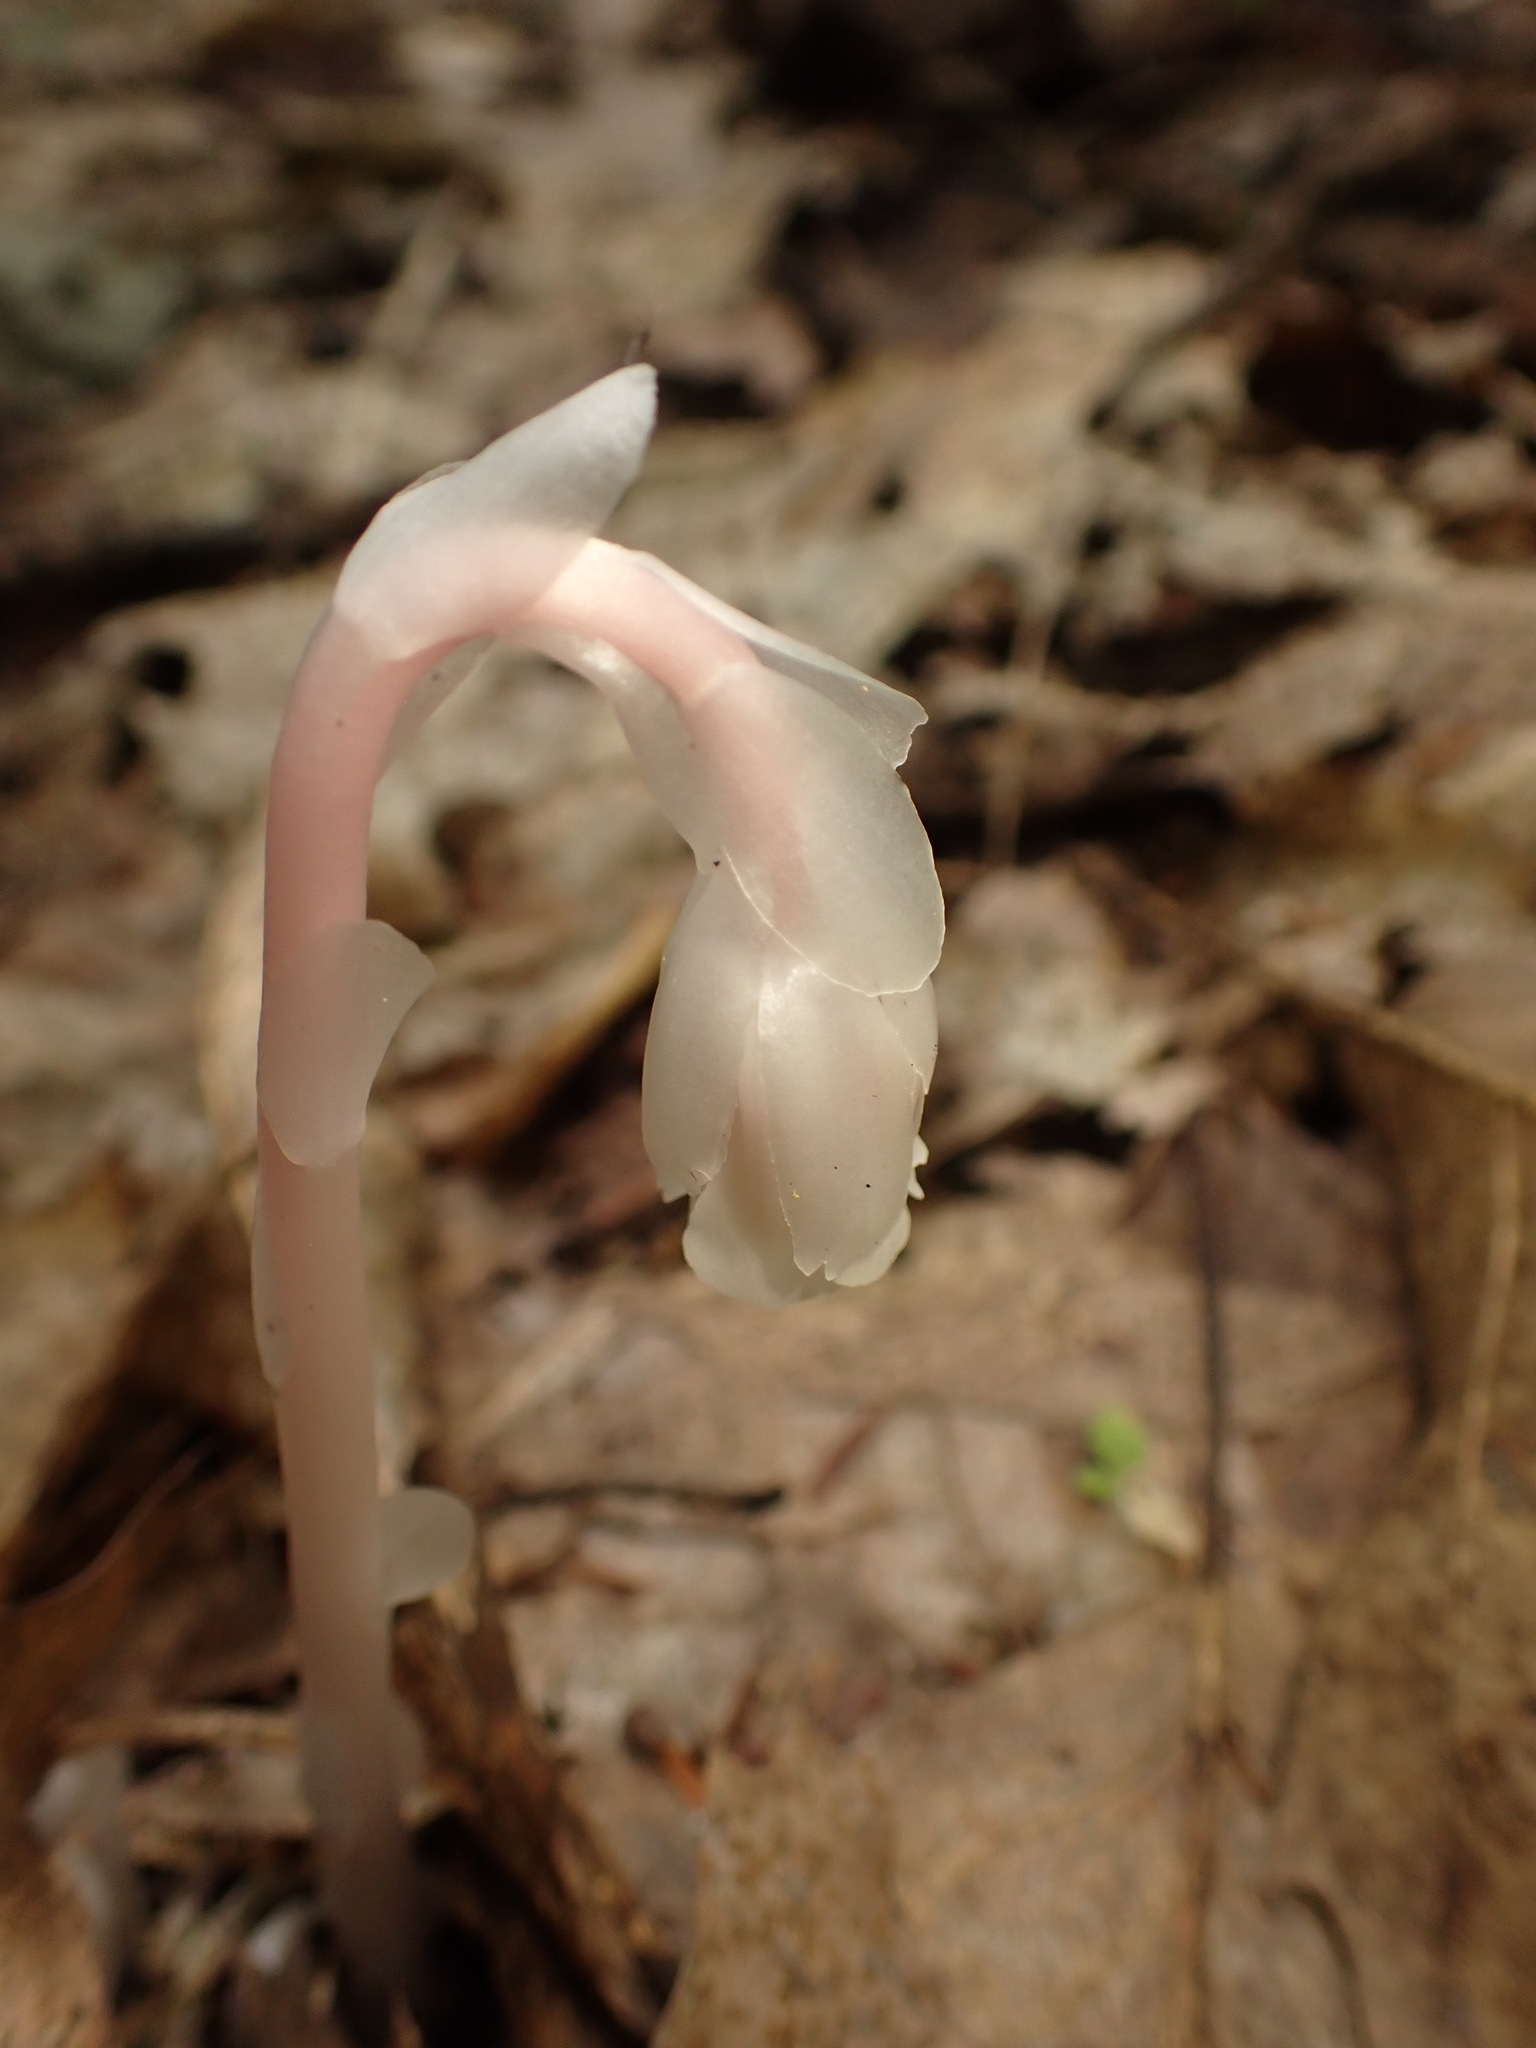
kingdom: Plantae
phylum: Tracheophyta
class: Magnoliopsida
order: Ericales
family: Ericaceae
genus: Monotropa
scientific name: Monotropa uniflora
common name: Convulsion root
